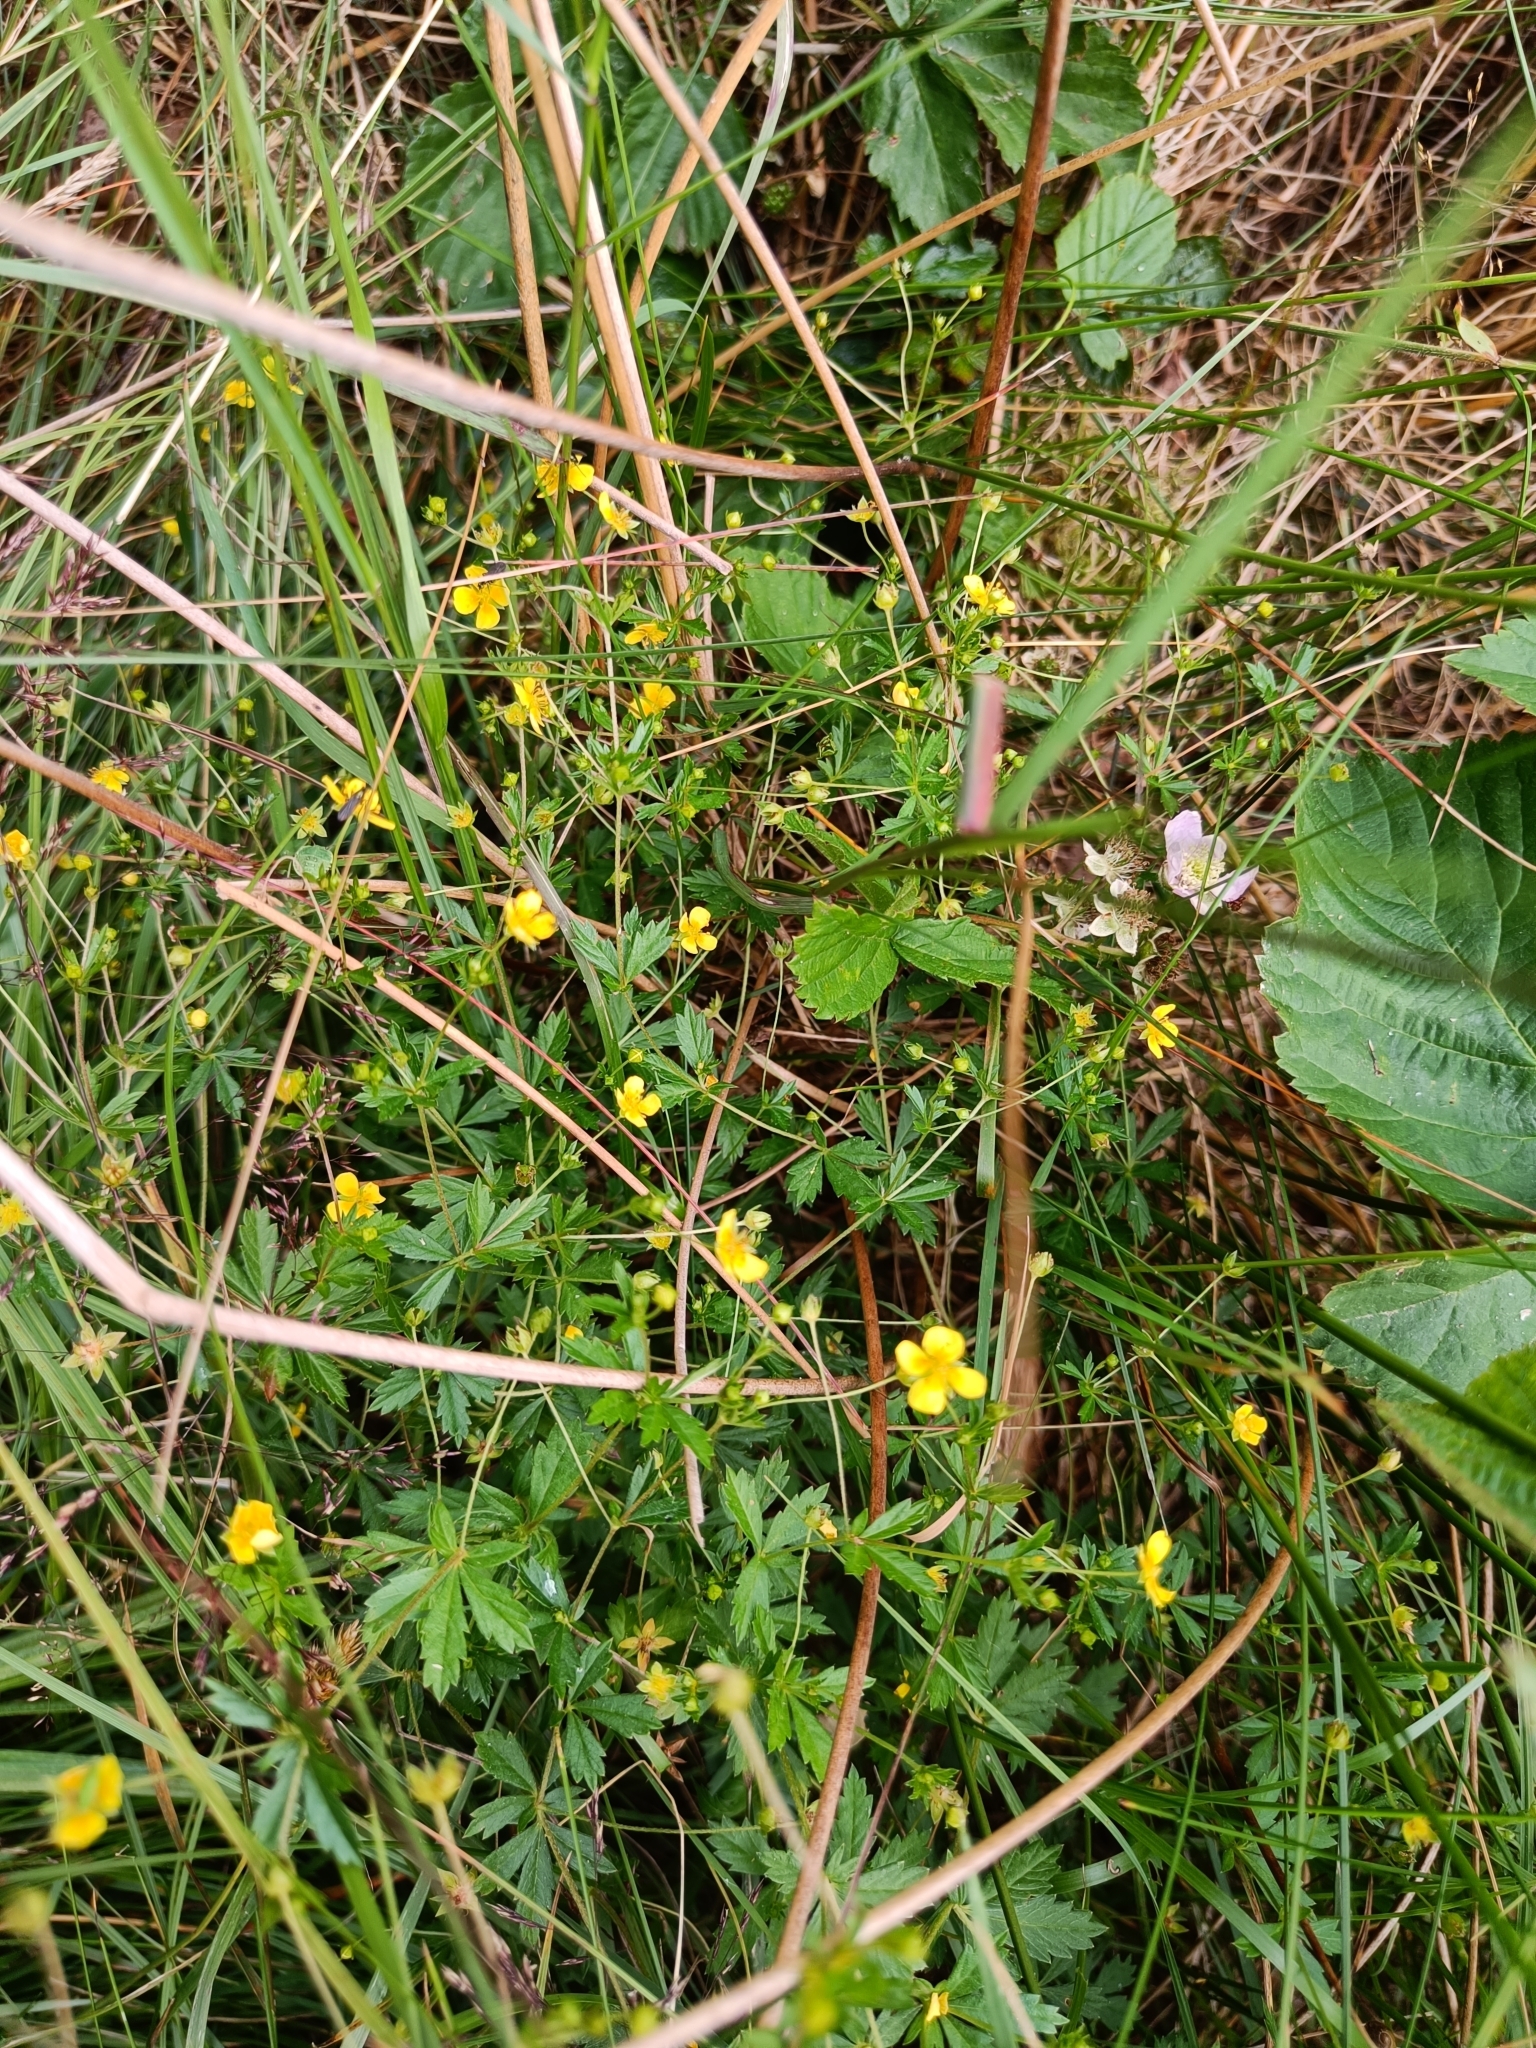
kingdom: Plantae
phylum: Tracheophyta
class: Magnoliopsida
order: Rosales
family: Rosaceae
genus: Potentilla
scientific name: Potentilla erecta
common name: Tormentil
